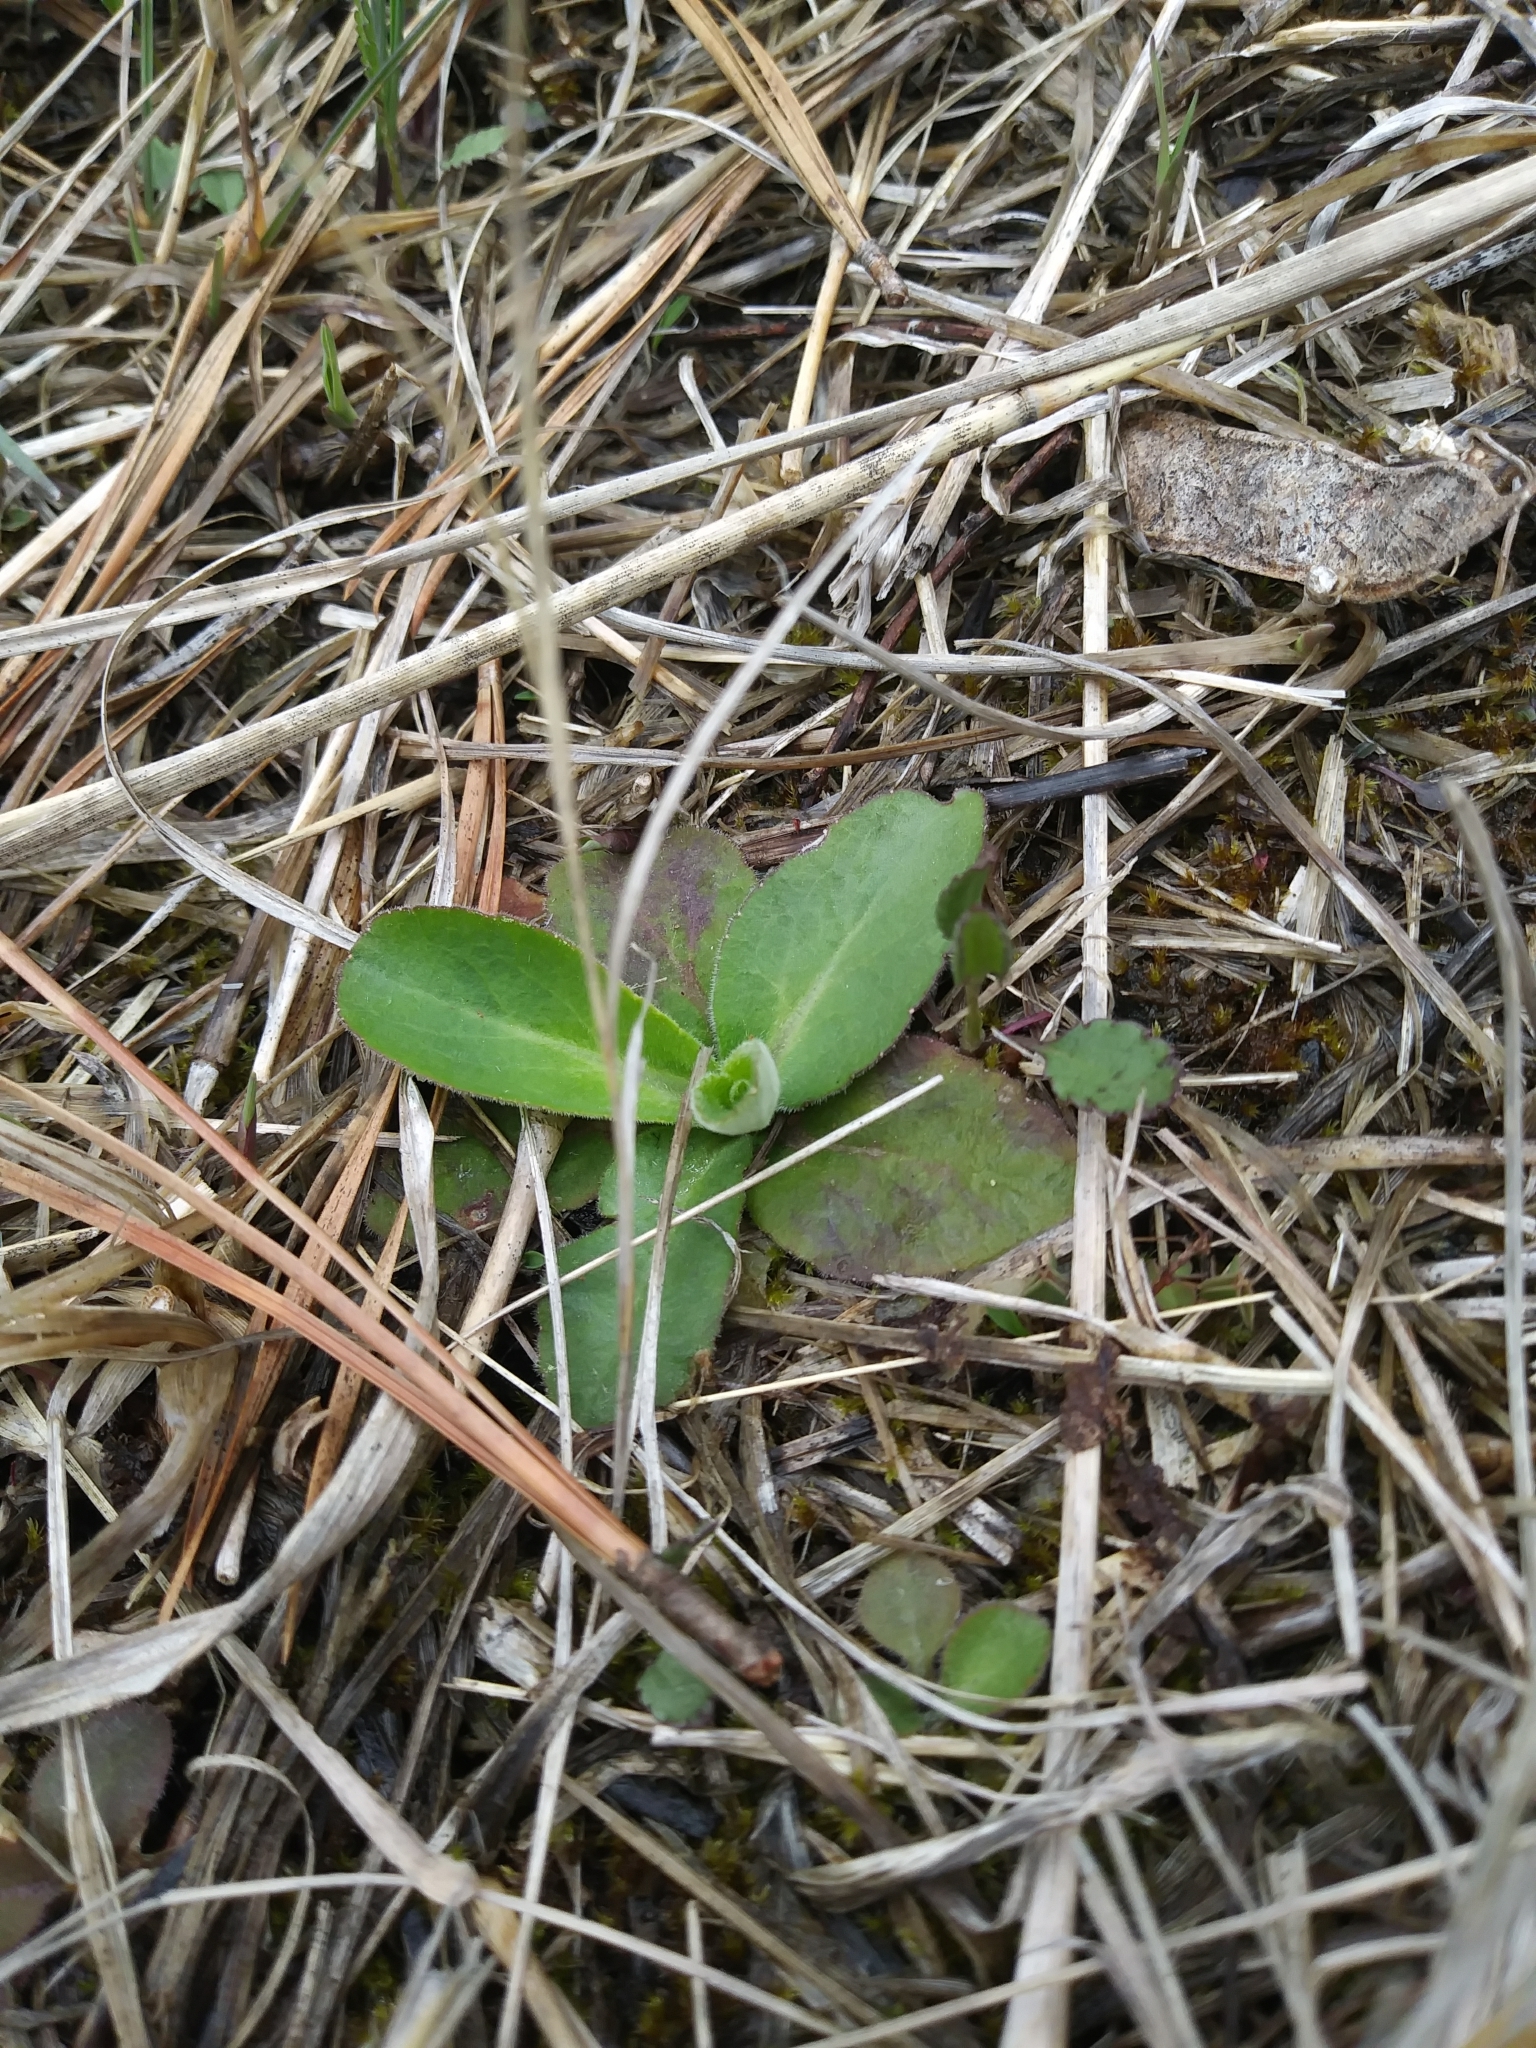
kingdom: Plantae
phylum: Tracheophyta
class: Magnoliopsida
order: Saxifragales
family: Saxifragaceae
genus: Micranthes
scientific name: Micranthes virginiensis
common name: Early saxifrage
